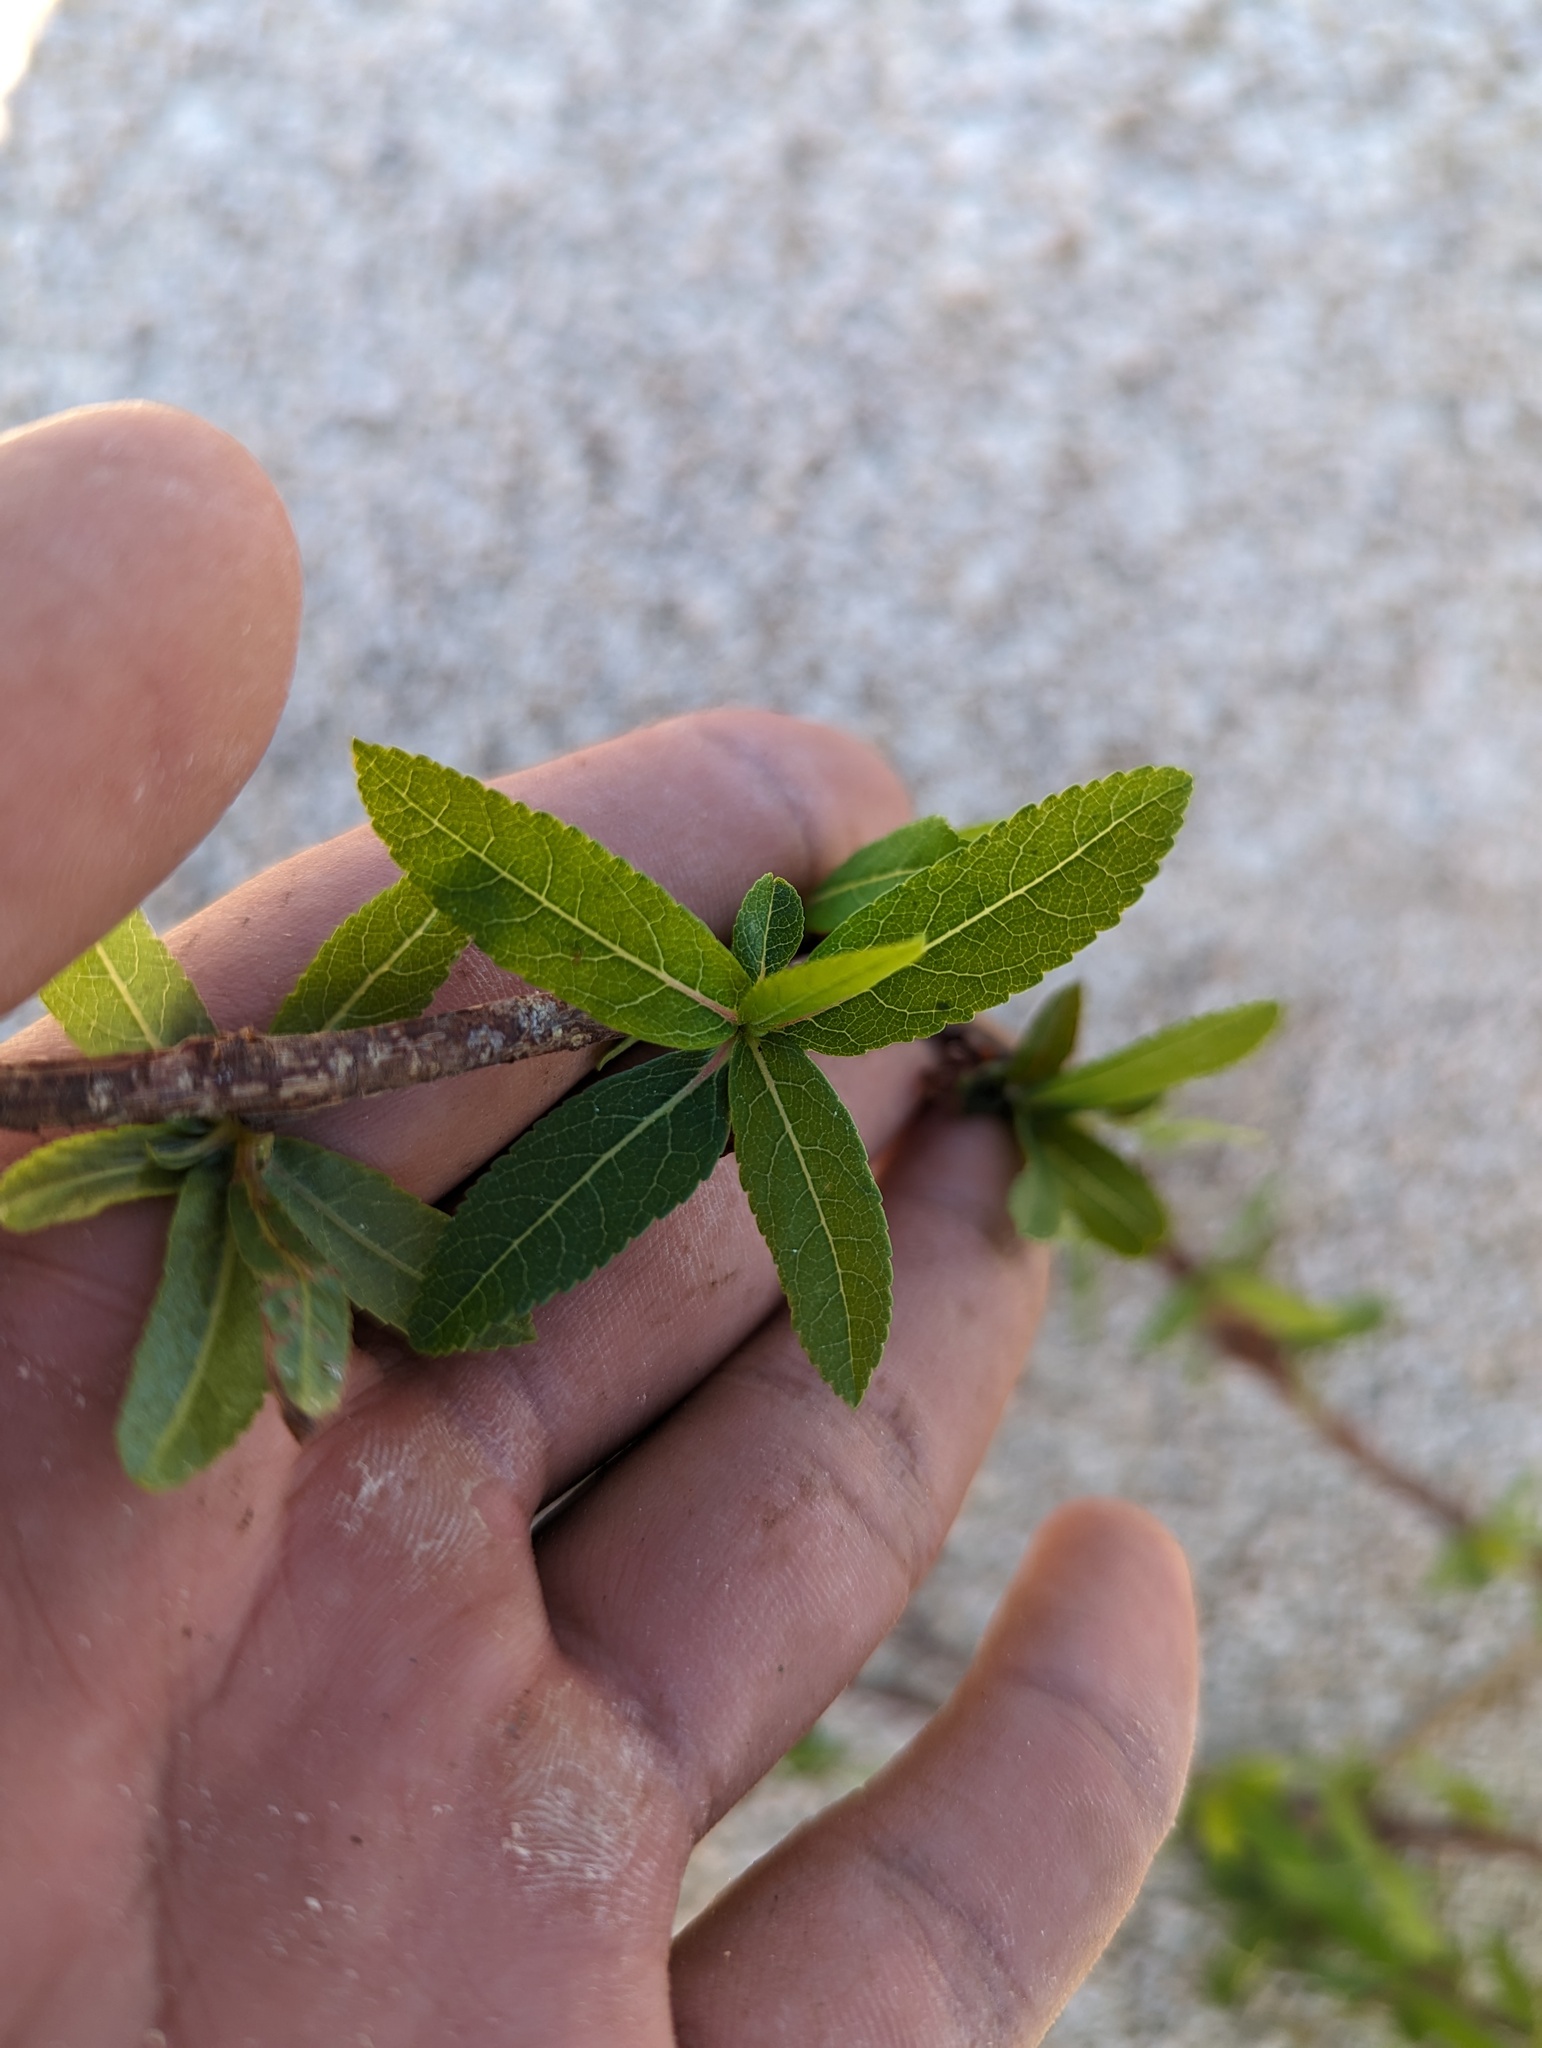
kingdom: Plantae
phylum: Tracheophyta
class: Magnoliopsida
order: Sapindales
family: Burseraceae
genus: Bursera
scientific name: Bursera cerasiifolia
